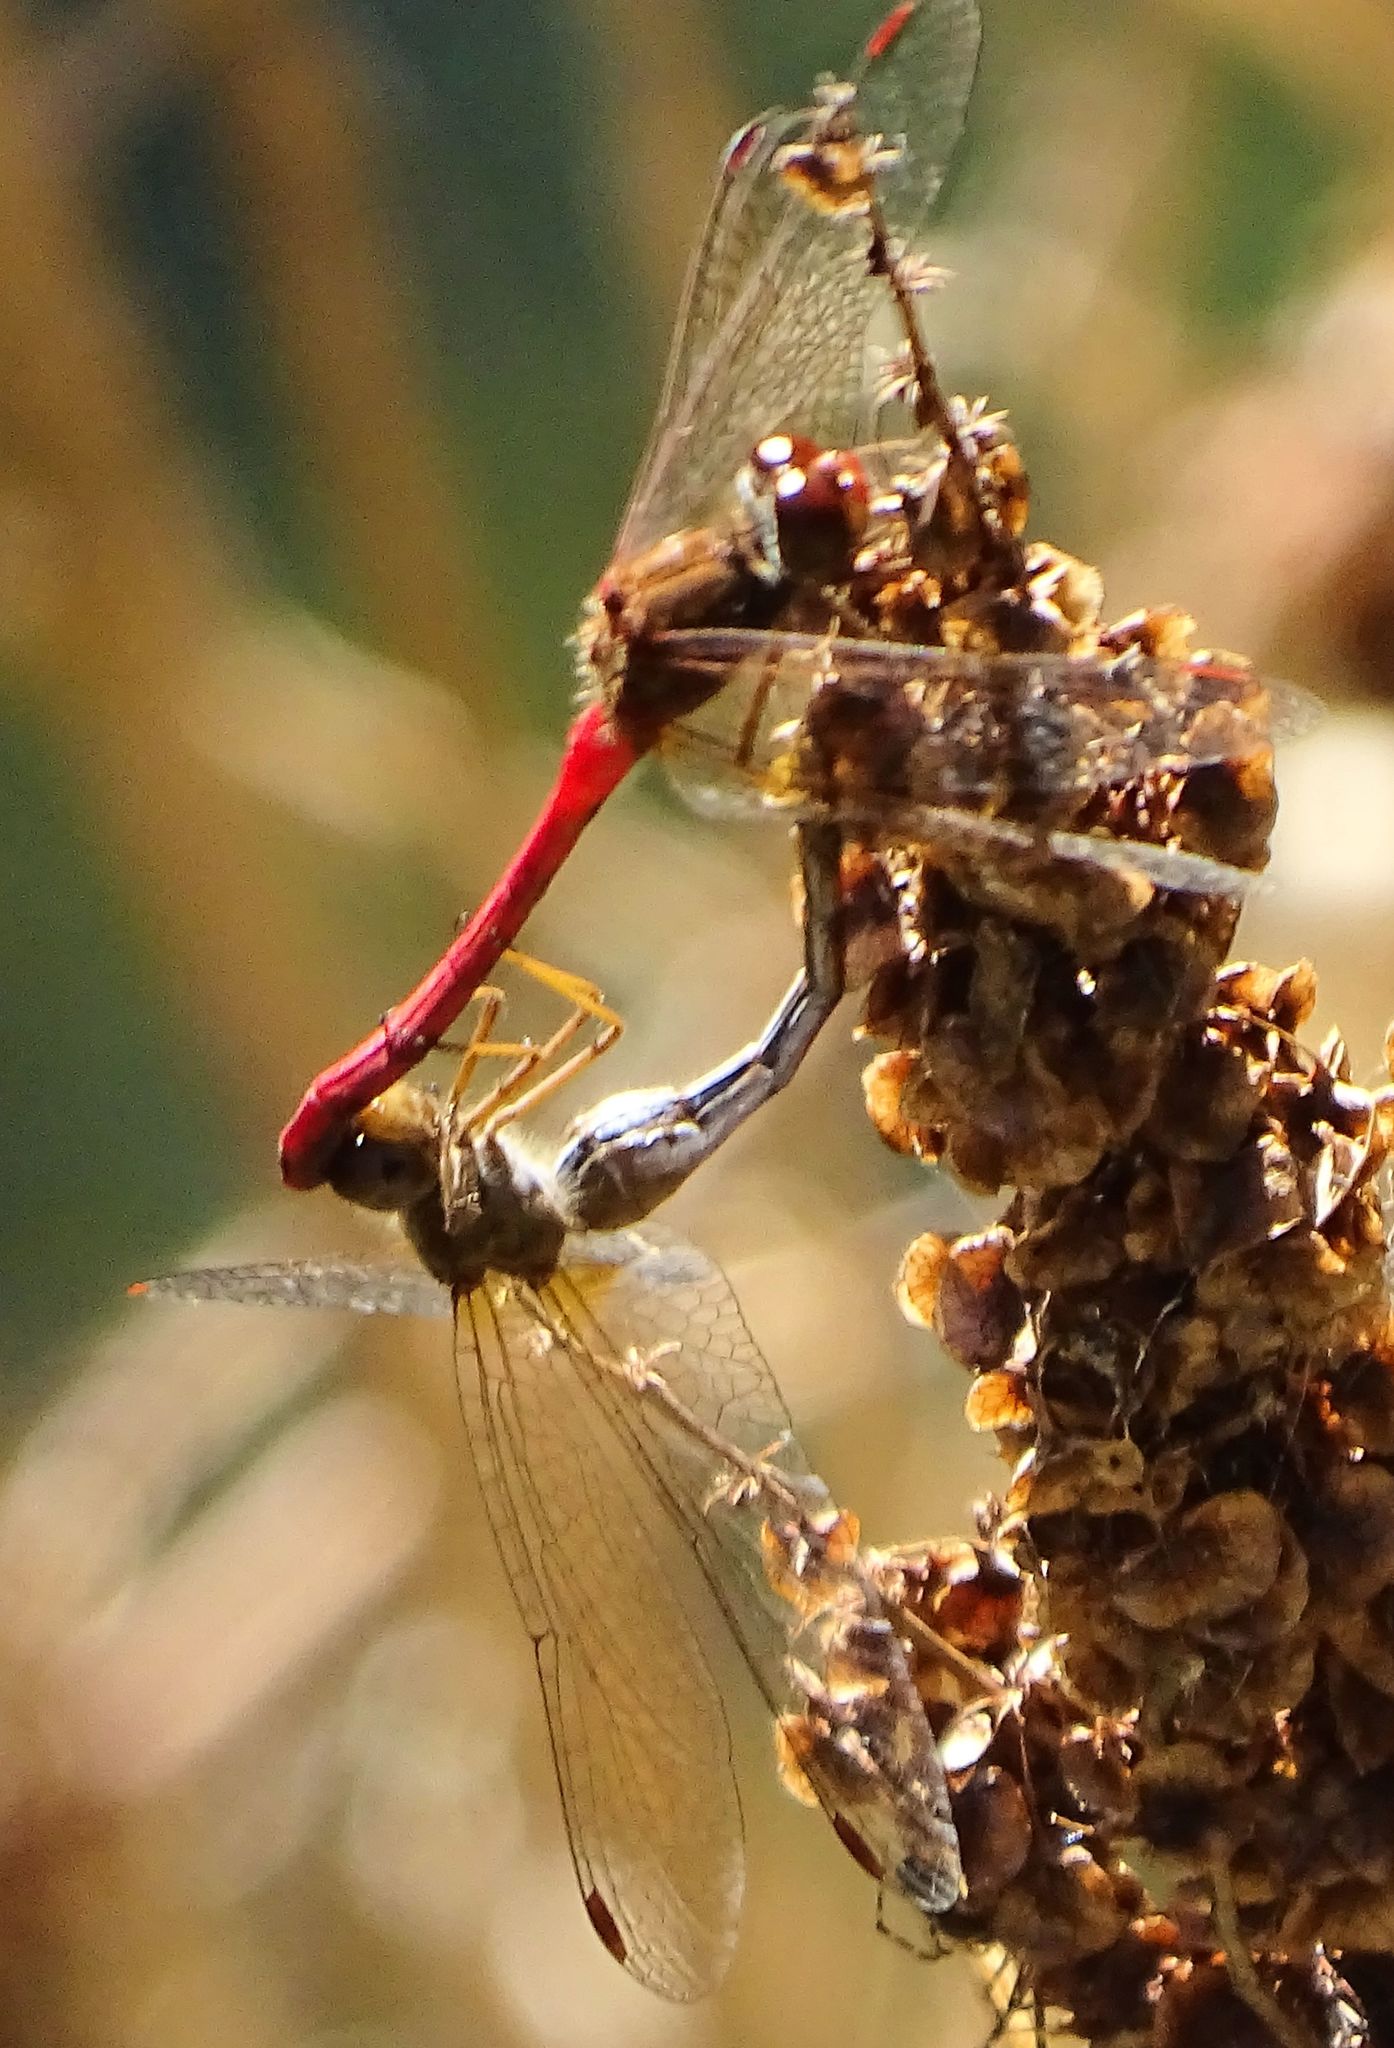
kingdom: Animalia
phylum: Arthropoda
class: Insecta
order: Odonata
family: Libellulidae
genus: Sympetrum
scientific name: Sympetrum vicinum
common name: Autumn meadowhawk
